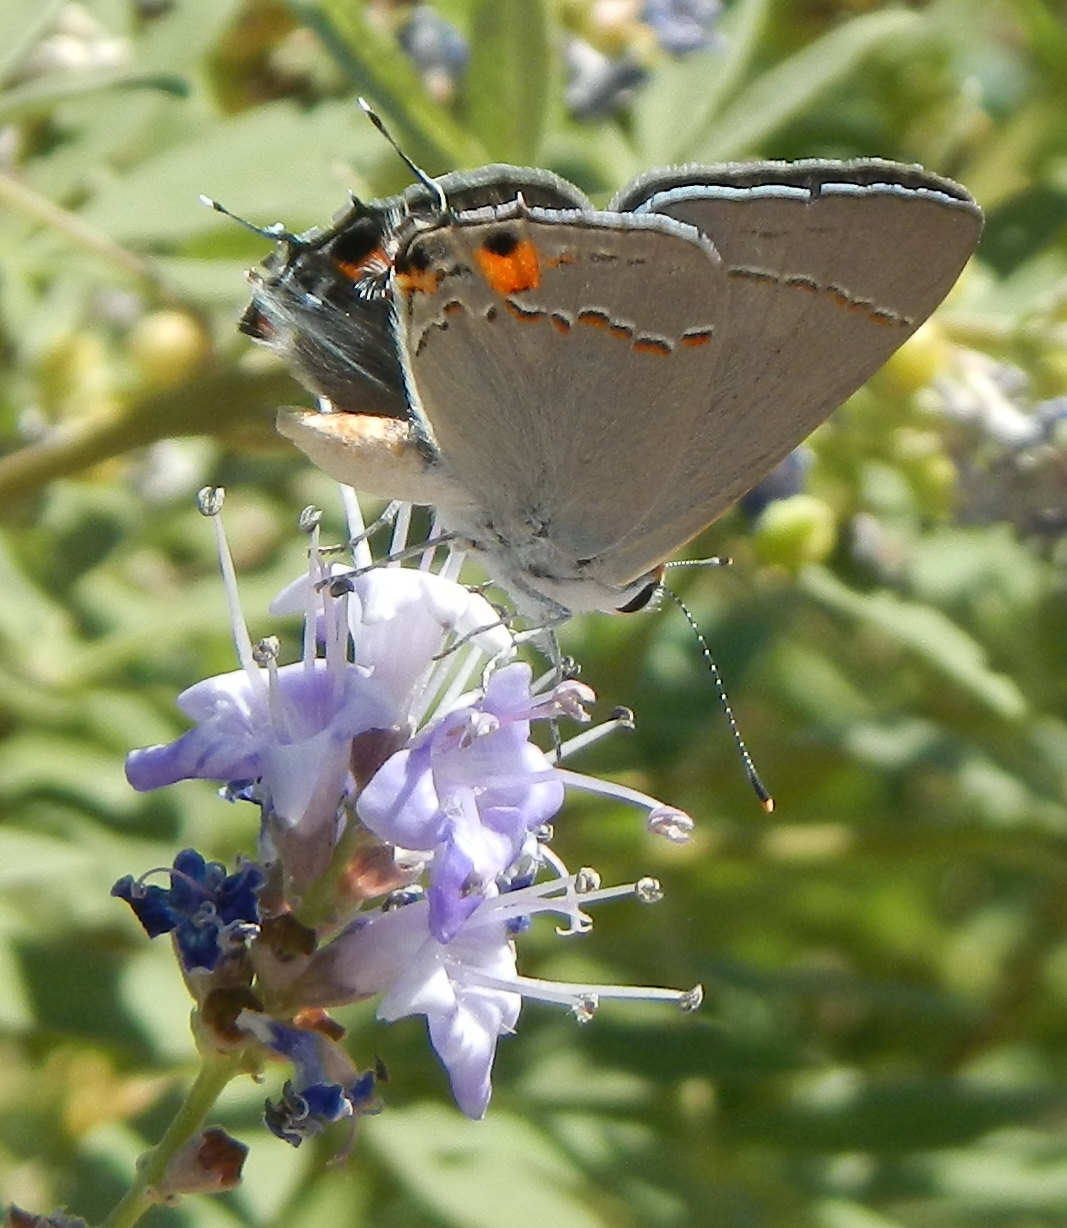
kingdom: Animalia
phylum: Arthropoda
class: Insecta
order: Lepidoptera
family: Lycaenidae
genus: Strymon
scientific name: Strymon melinus
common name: Gray hairstreak
